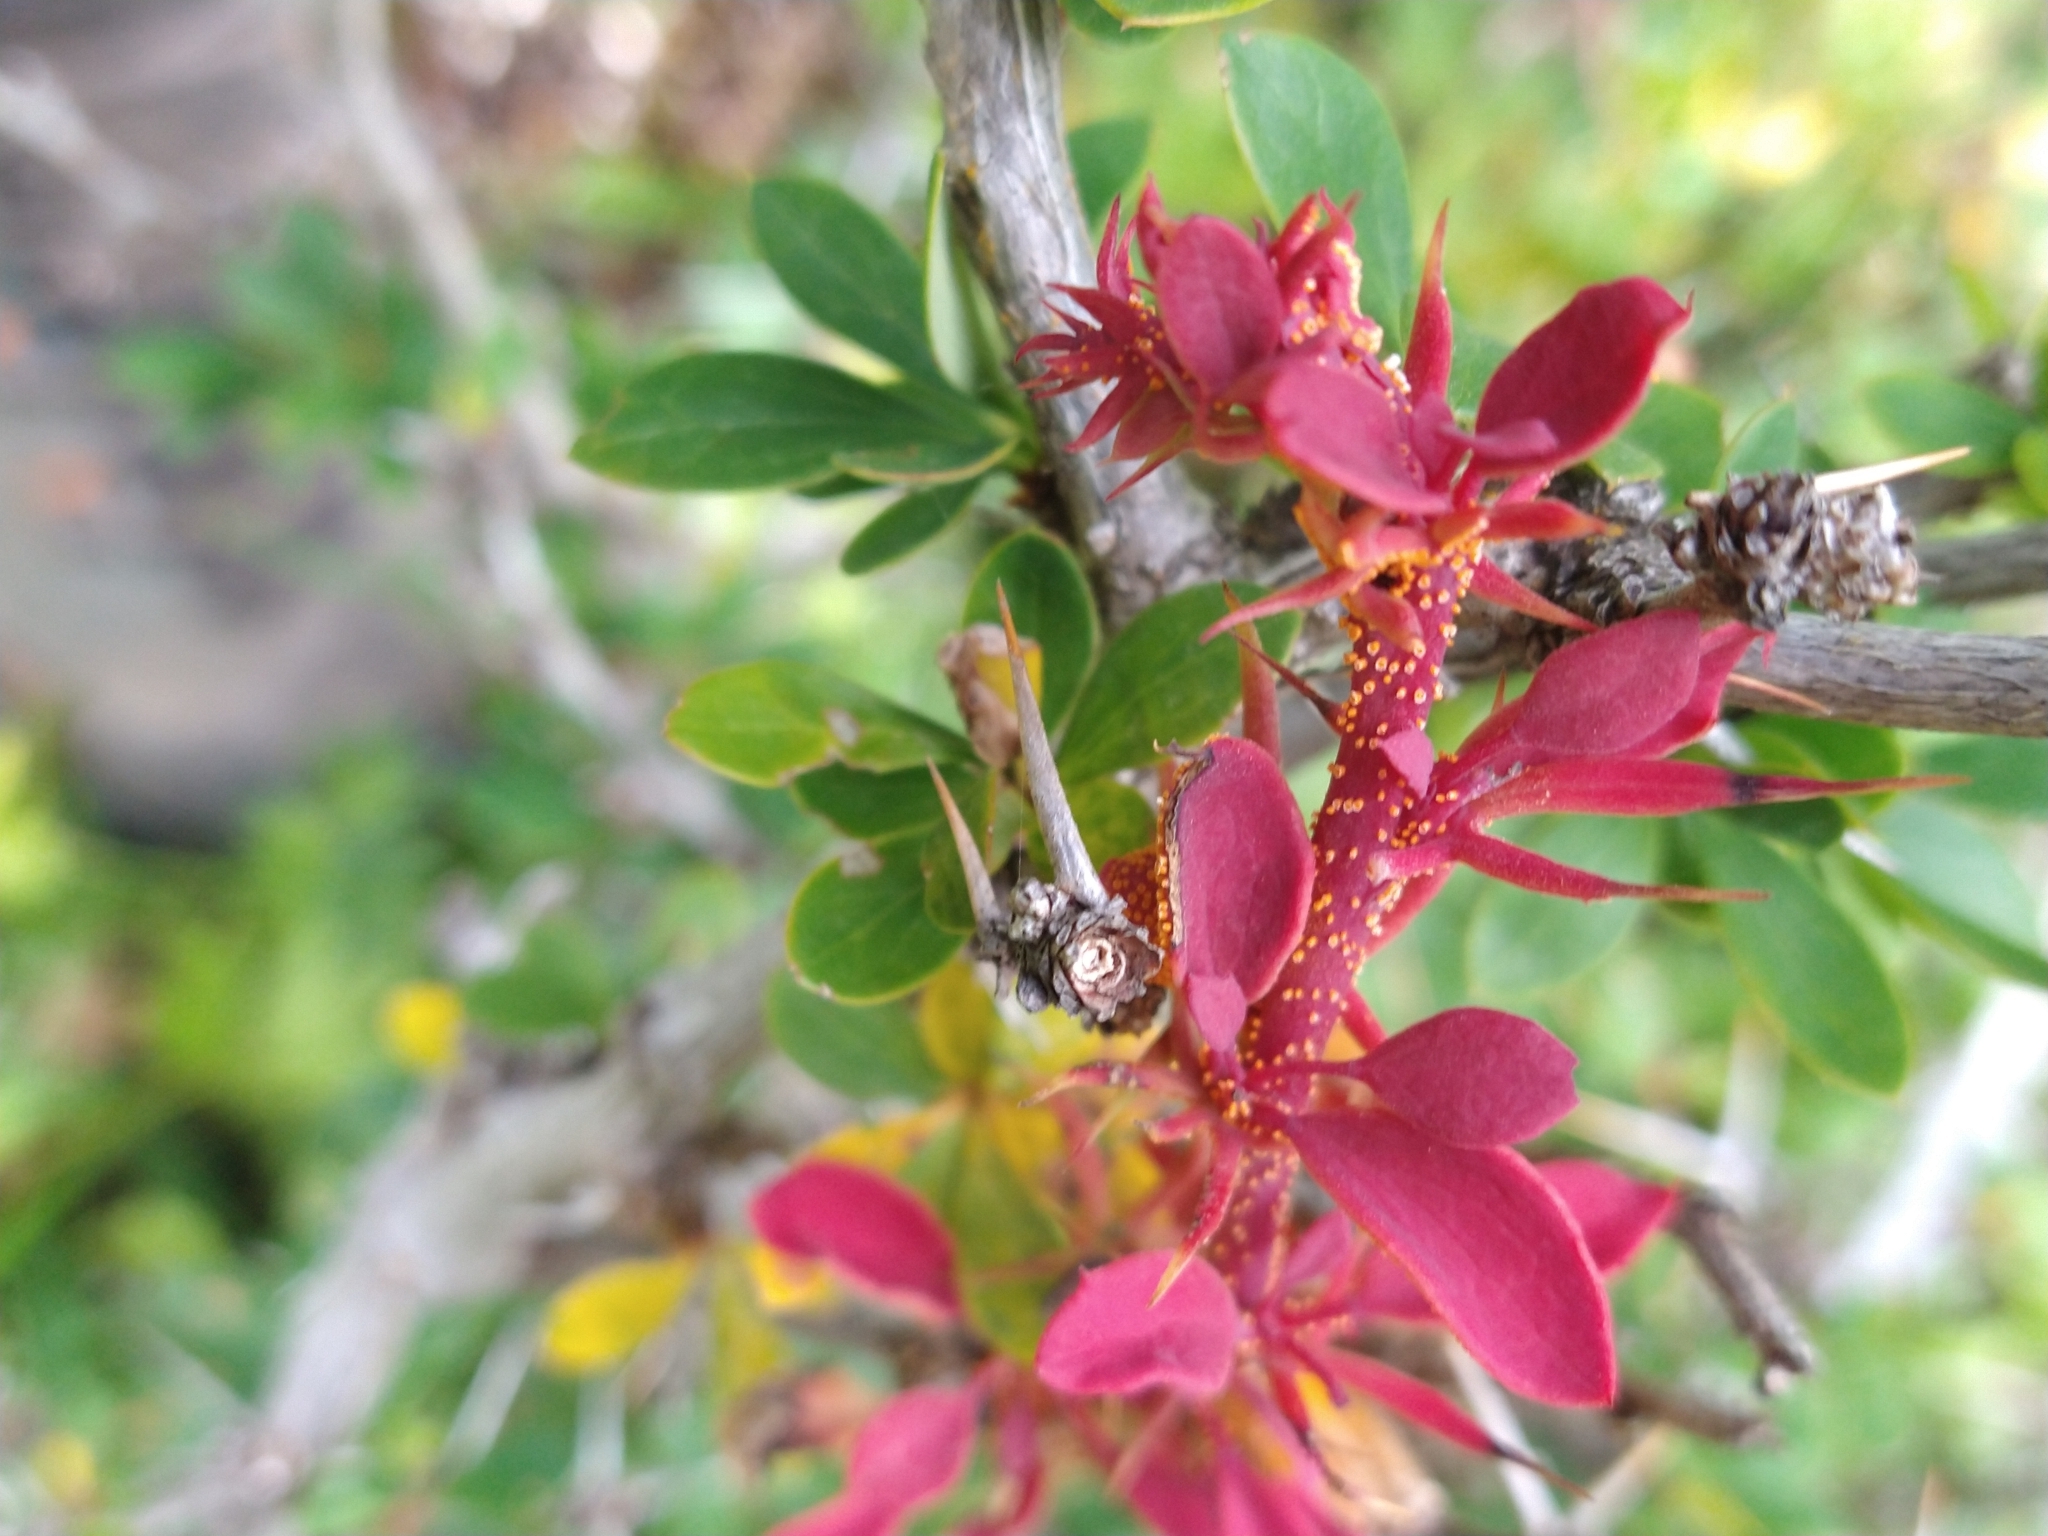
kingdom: Fungi
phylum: Basidiomycota
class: Pucciniomycetes
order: Pucciniales
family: Pucciniaceae
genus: Puccinia
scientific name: Puccinia magellanica
